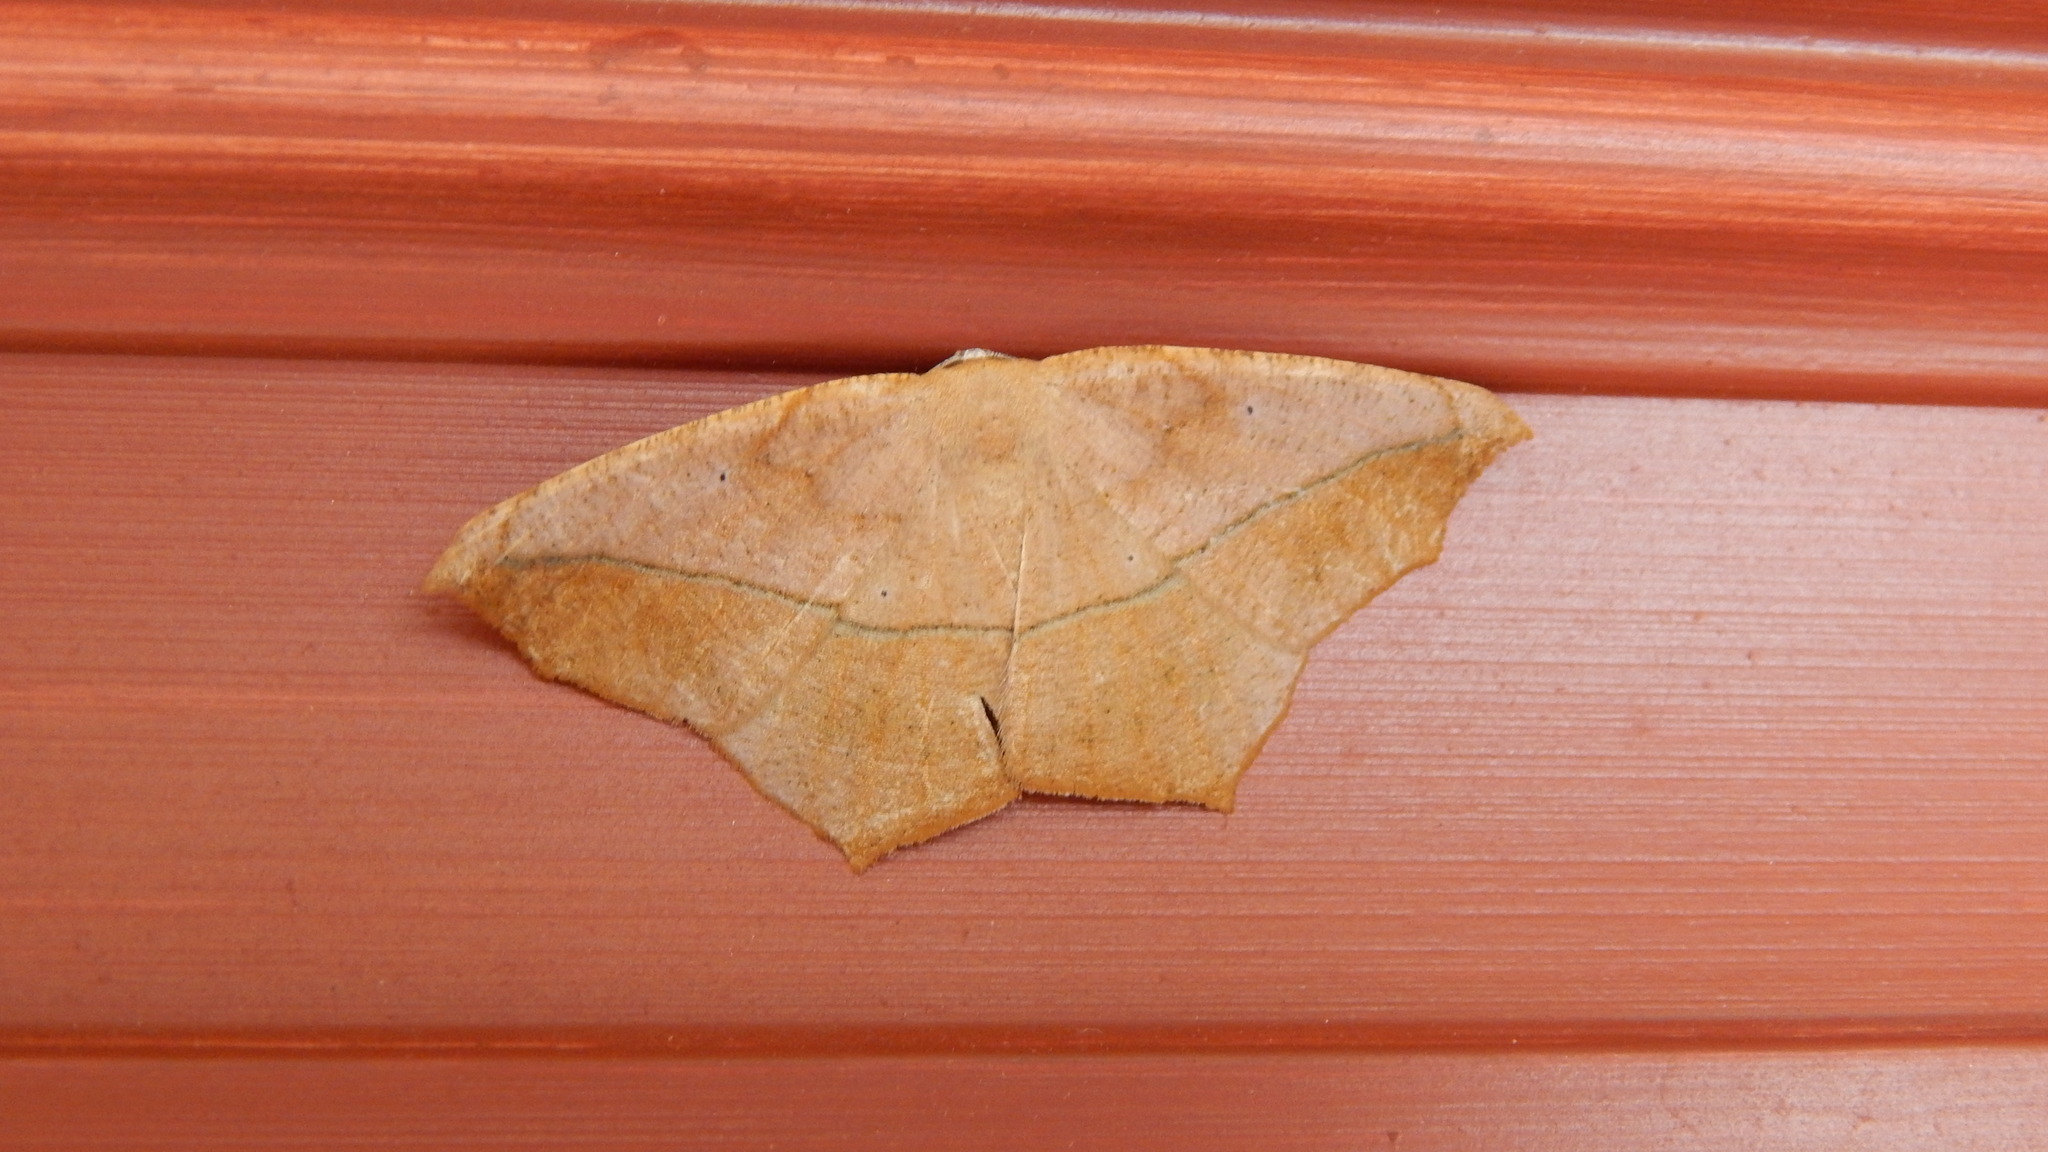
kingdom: Animalia
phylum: Arthropoda
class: Insecta
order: Lepidoptera
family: Geometridae
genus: Prochoerodes
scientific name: Prochoerodes lineola
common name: Large maple spanworm
